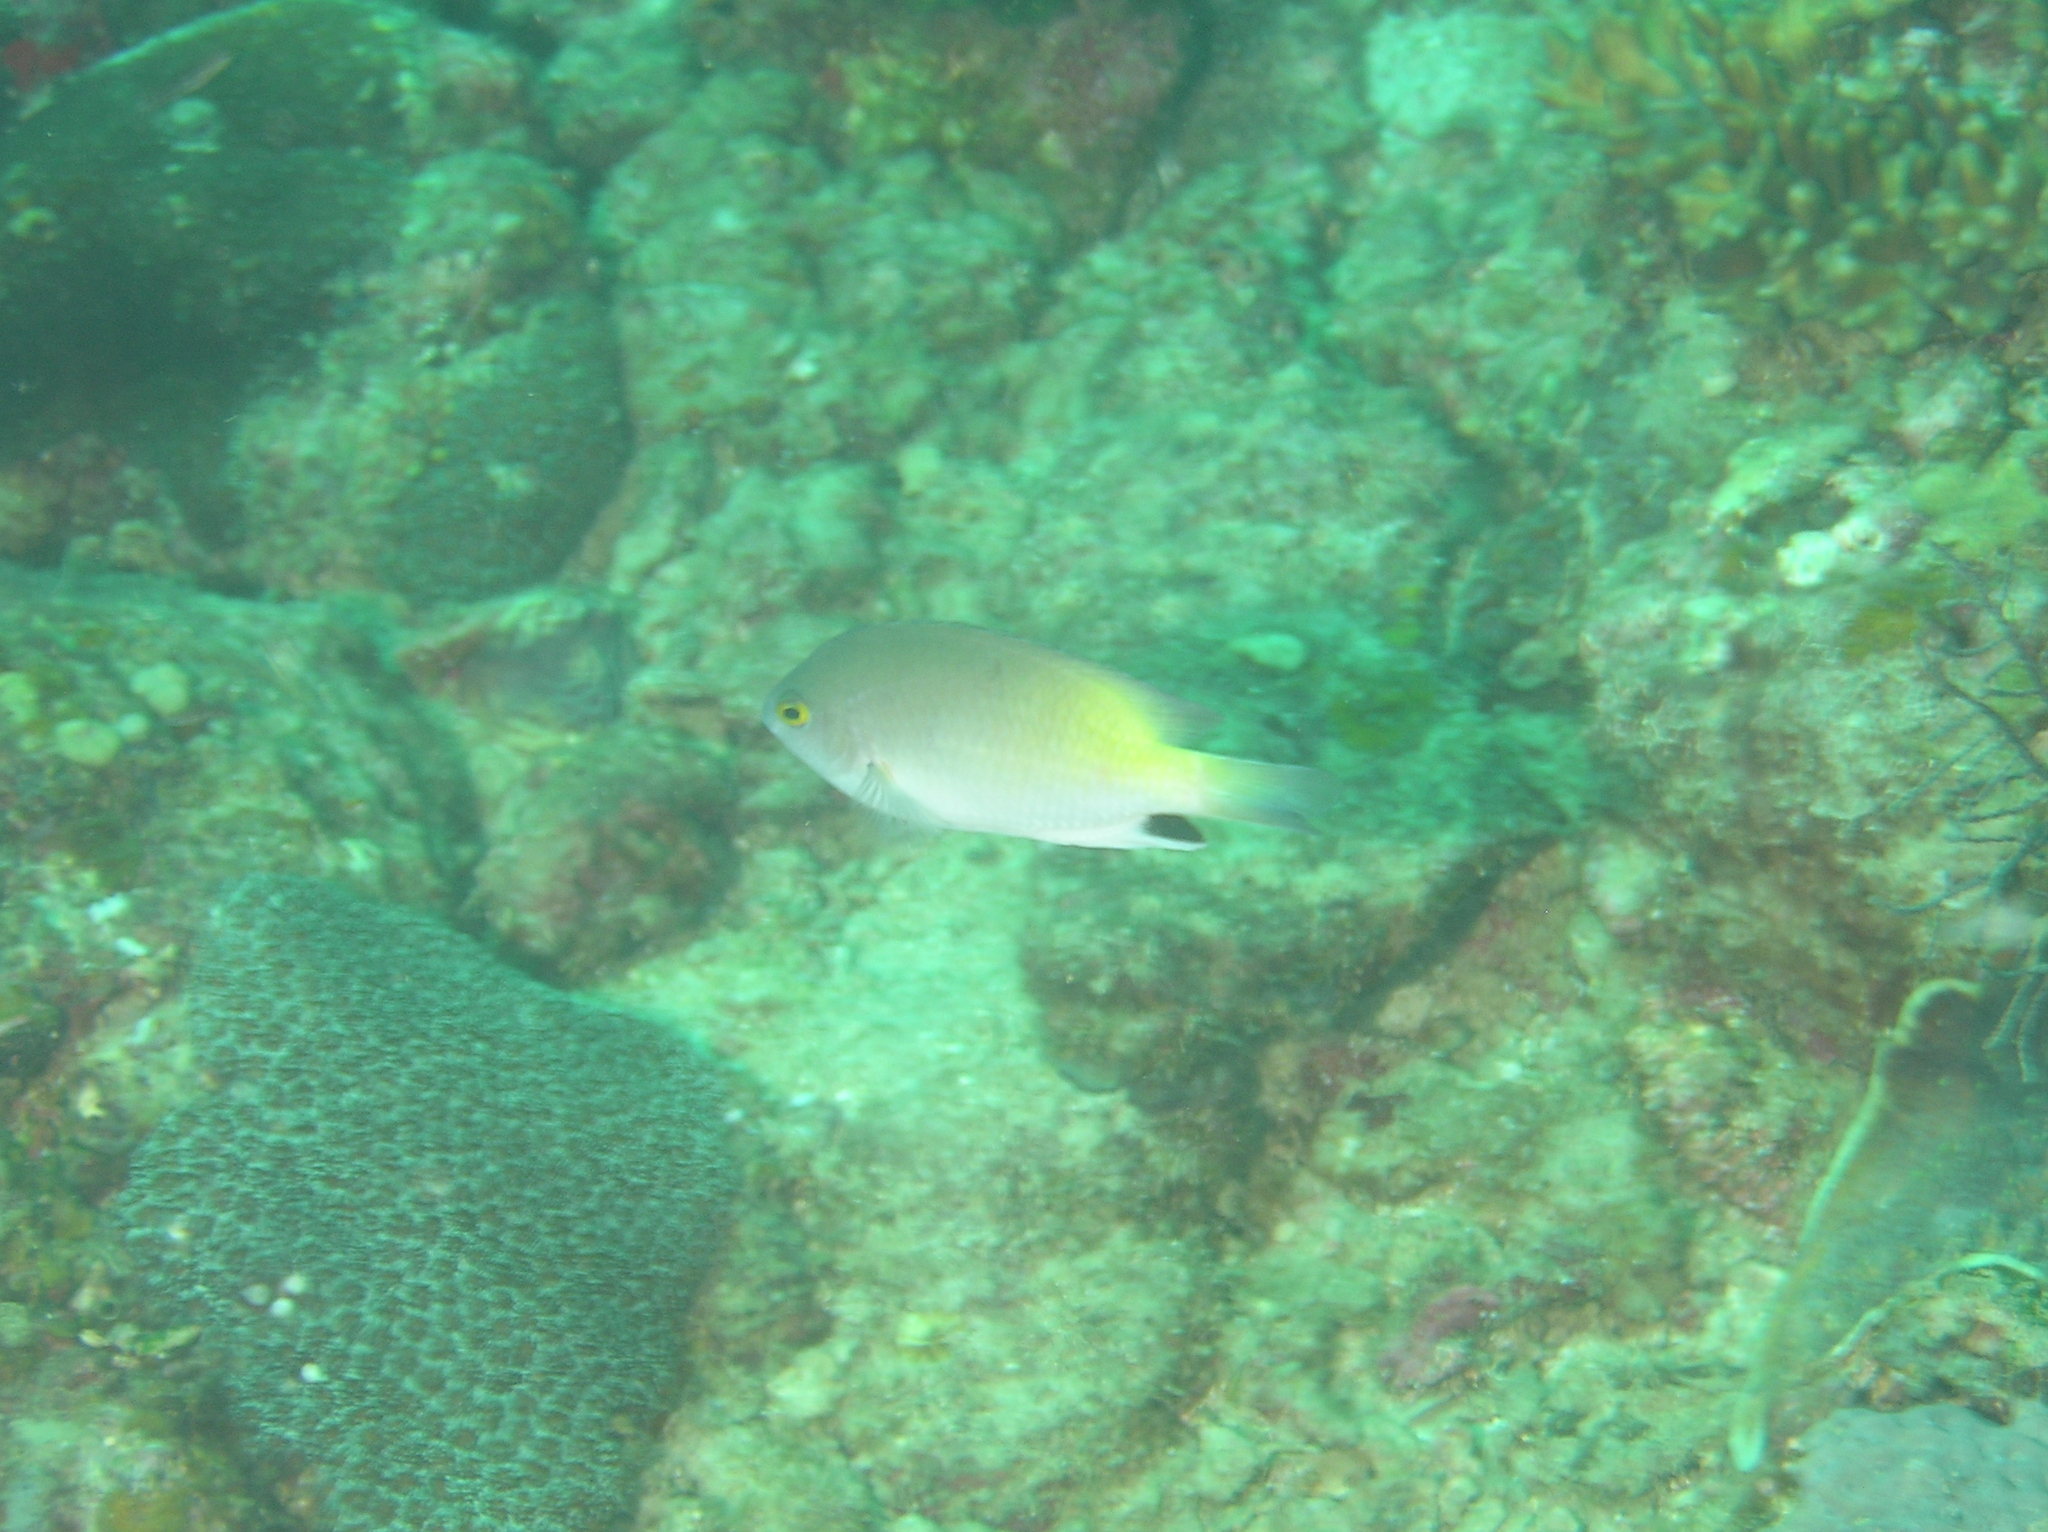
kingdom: Animalia
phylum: Chordata
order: Perciformes
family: Pomacentridae
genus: Pomacentrus
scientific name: Pomacentrus stigma
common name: Blackspot damsel
